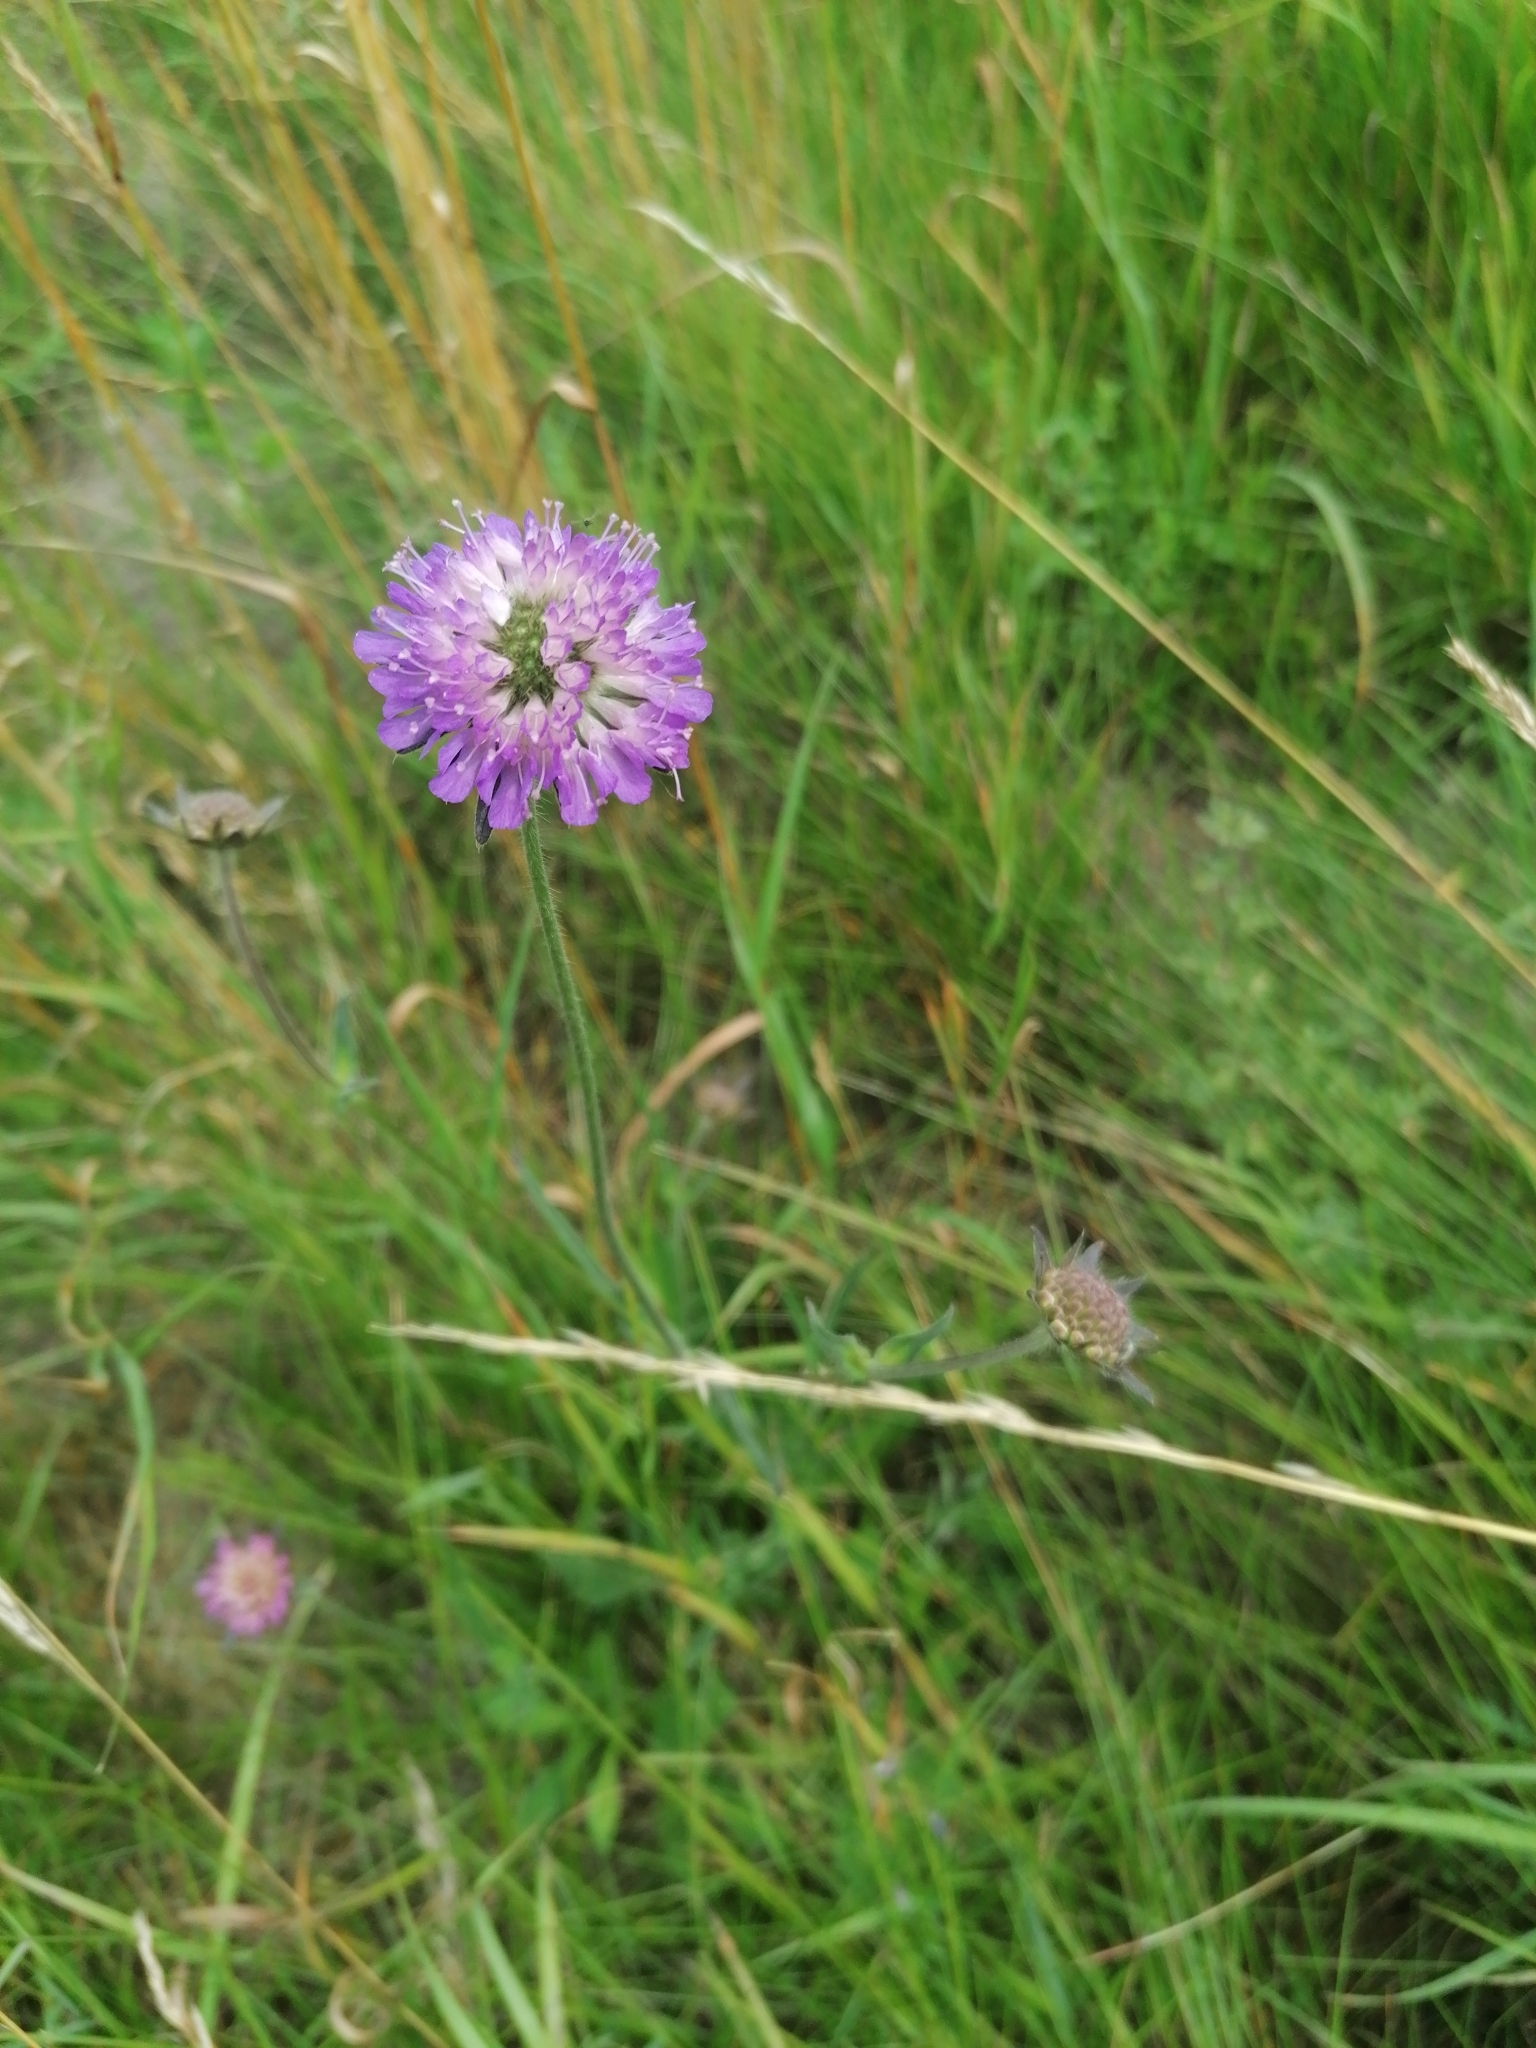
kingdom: Plantae
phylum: Tracheophyta
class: Magnoliopsida
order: Dipsacales
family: Caprifoliaceae
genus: Knautia
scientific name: Knautia arvensis
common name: Field scabiosa
